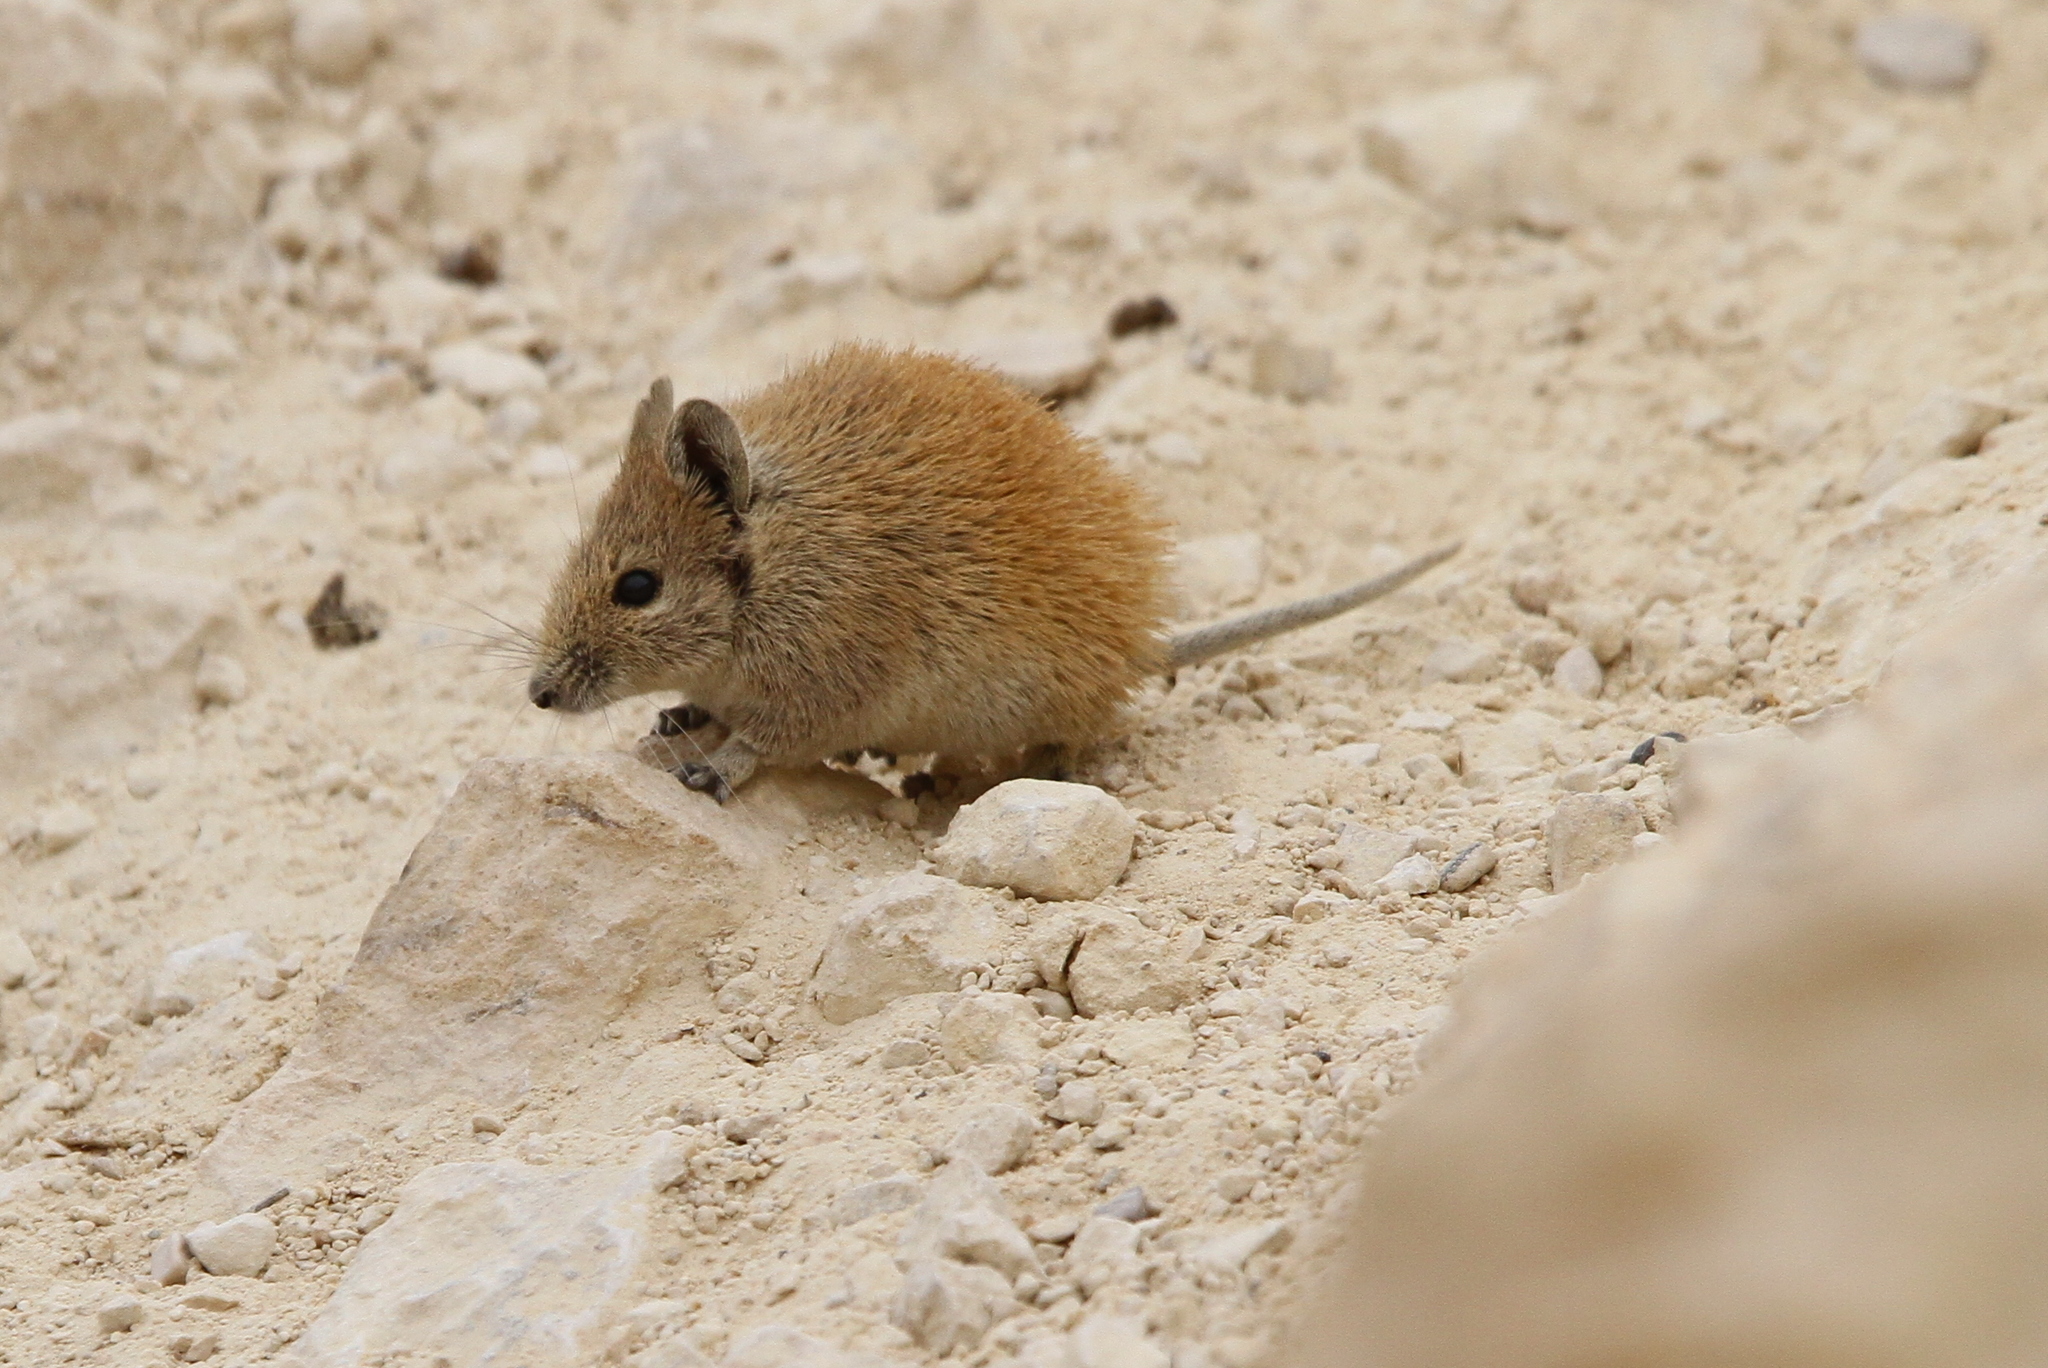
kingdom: Animalia
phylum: Chordata
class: Mammalia
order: Rodentia
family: Muridae
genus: Acomys
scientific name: Acomys russatus
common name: Golden spiny mouse
